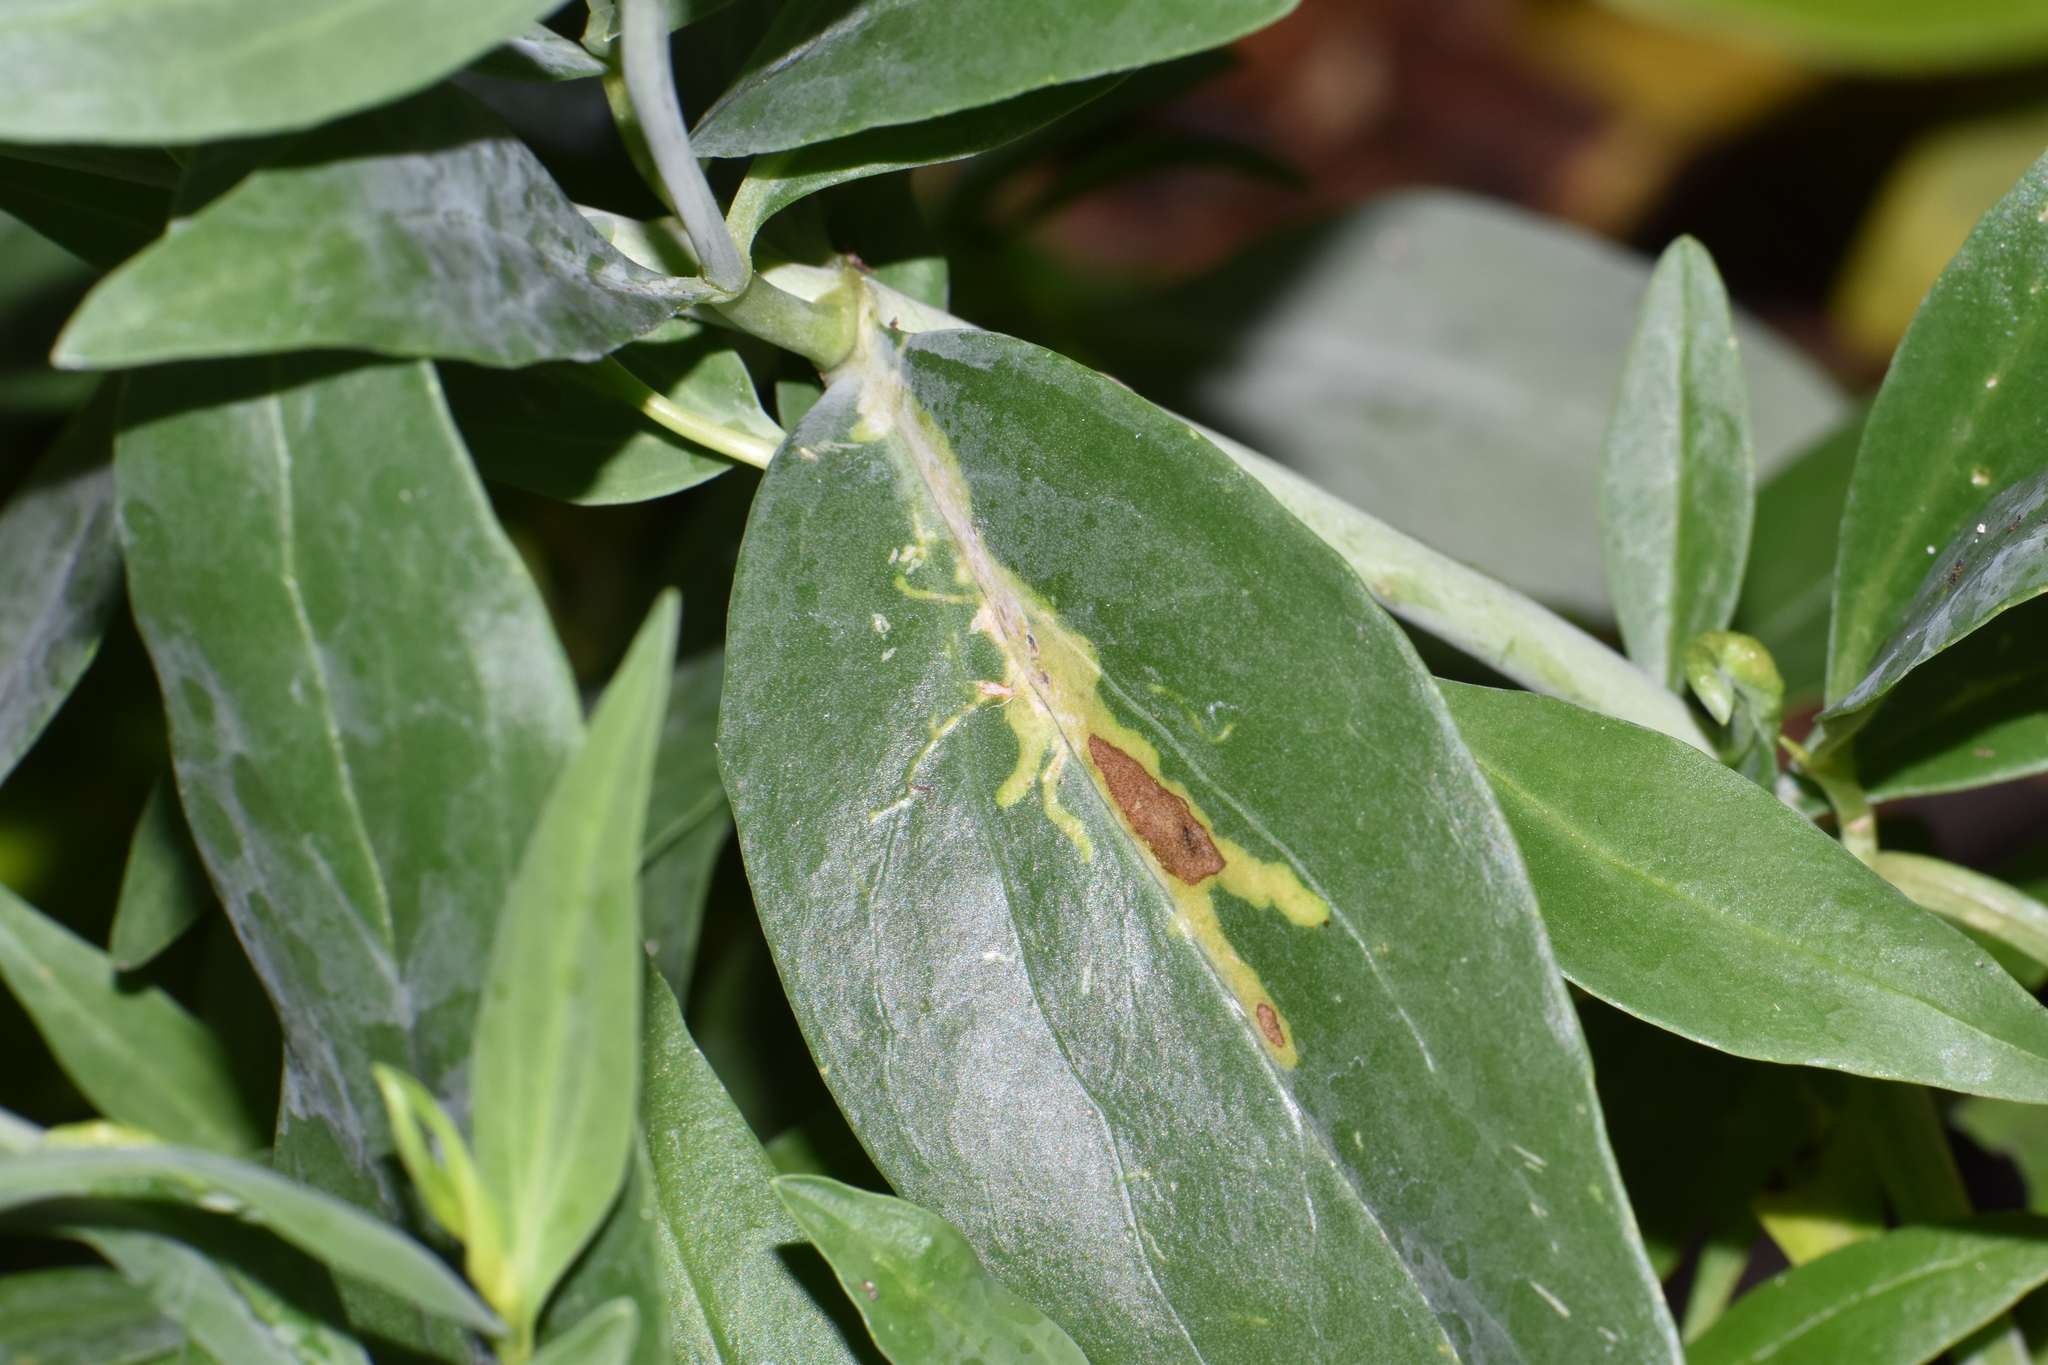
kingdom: Animalia
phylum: Arthropoda
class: Insecta
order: Diptera
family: Agromyzidae
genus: Liriomyza
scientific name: Liriomyza strigata
